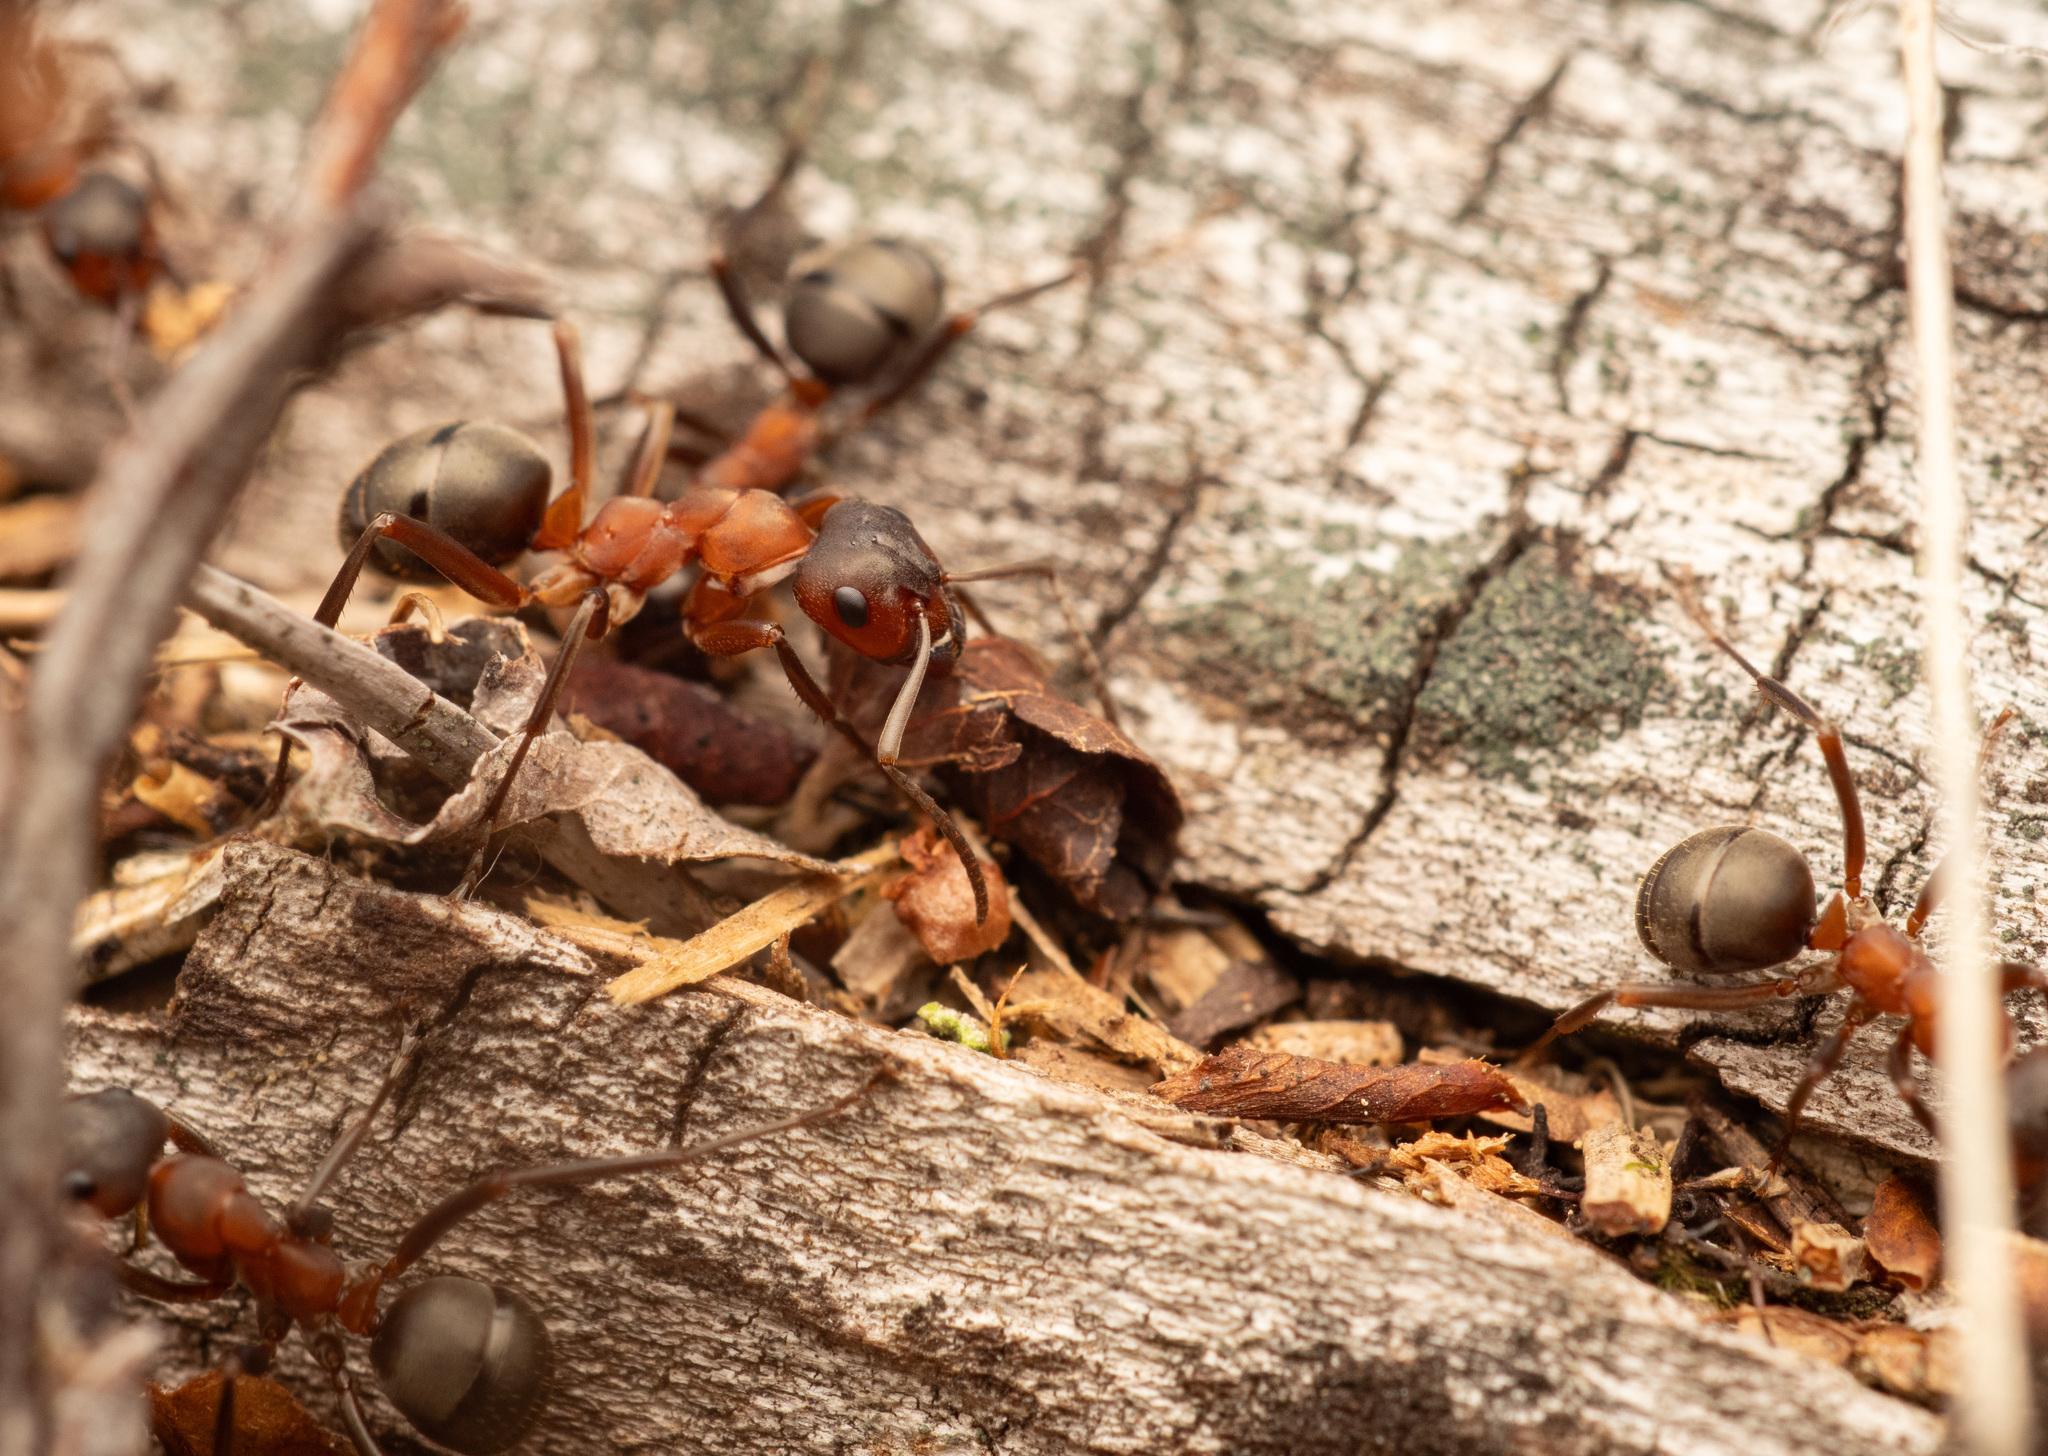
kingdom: Animalia
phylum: Arthropoda
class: Insecta
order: Hymenoptera
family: Formicidae
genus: Formica
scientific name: Formica sanguinea
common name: Blood-red ant
